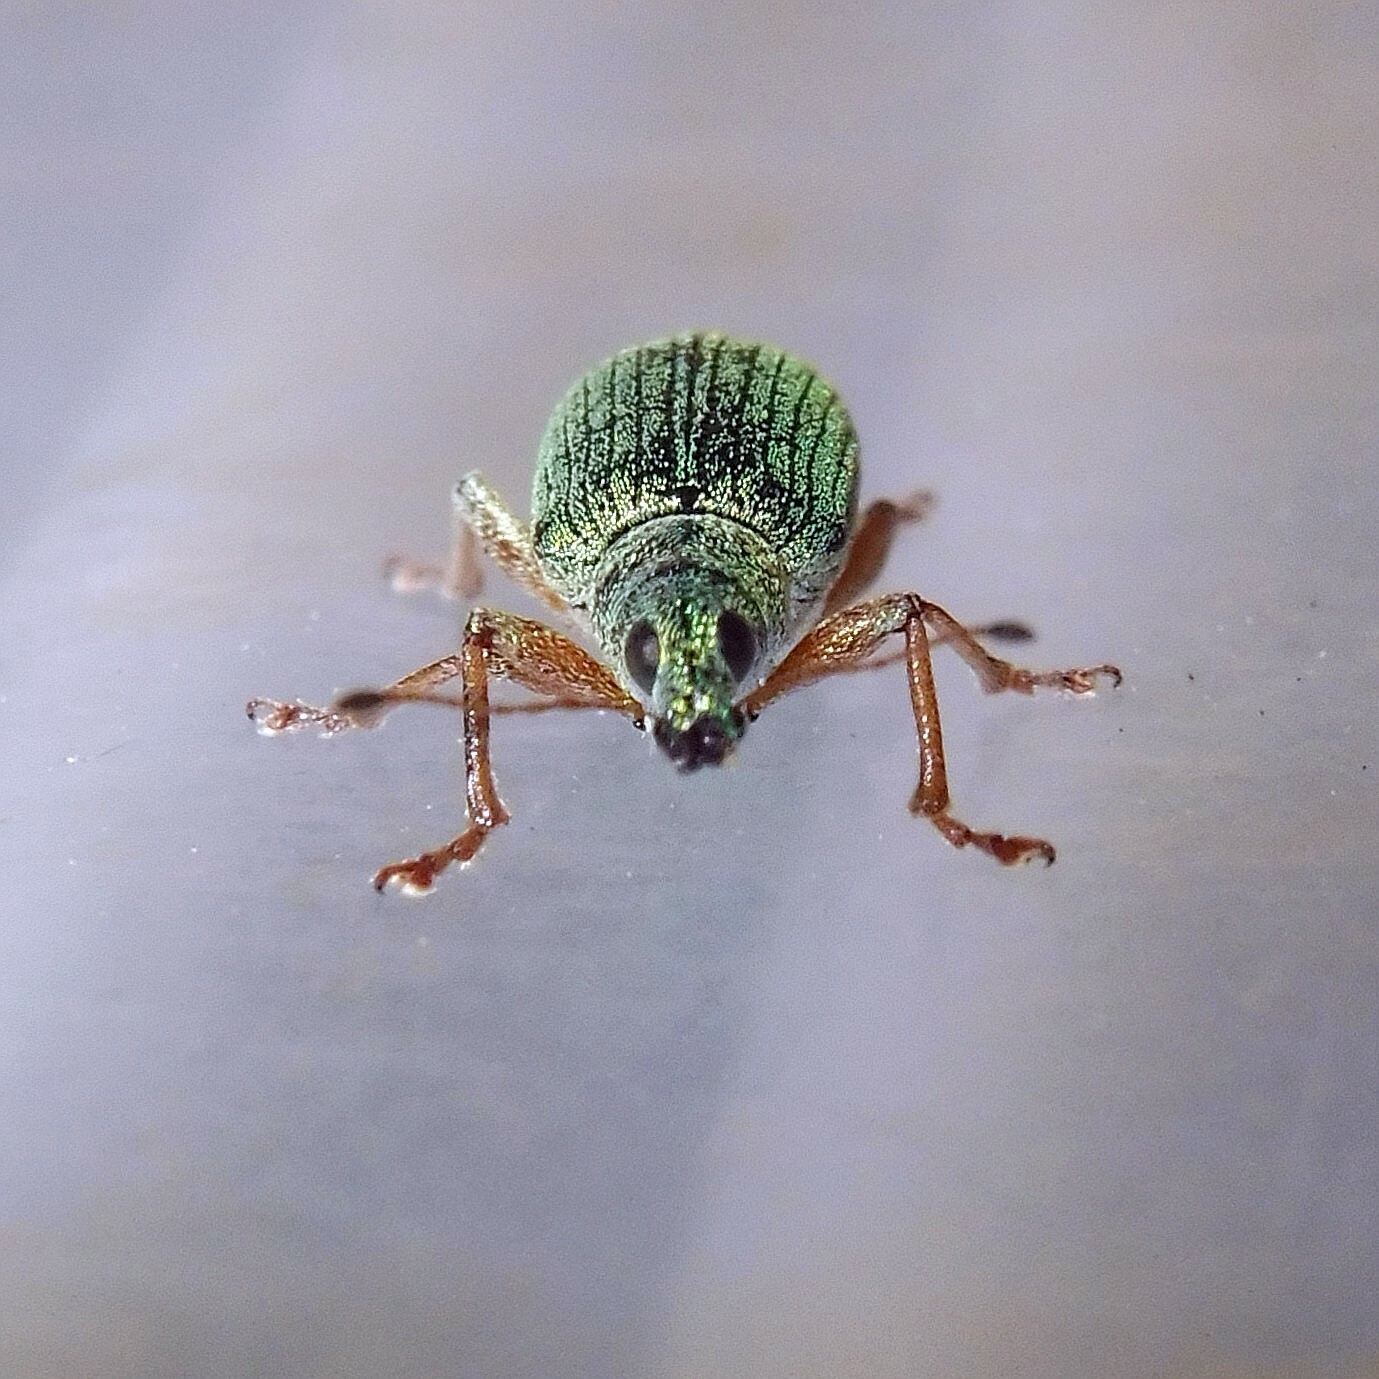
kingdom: Animalia
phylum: Arthropoda
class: Insecta
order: Coleoptera
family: Curculionidae
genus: Polydrusus
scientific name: Polydrusus formosus
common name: Weevil
